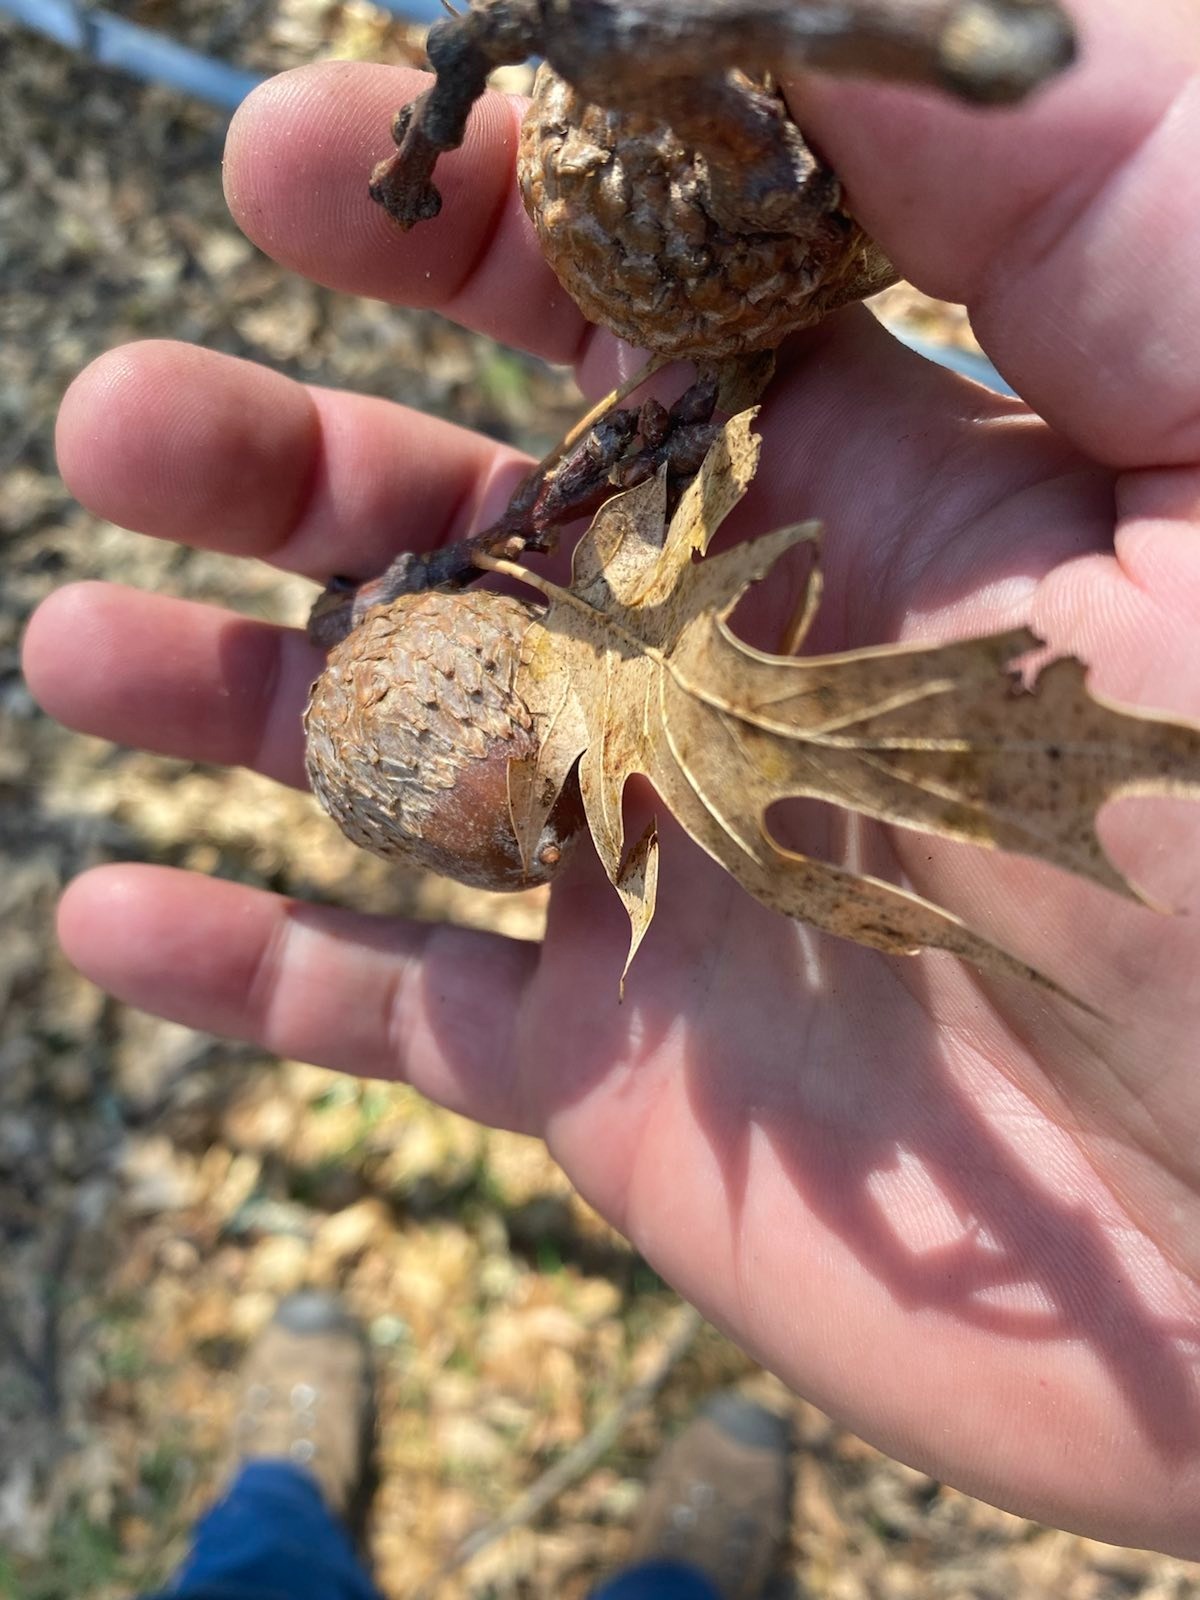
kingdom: Plantae
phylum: Tracheophyta
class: Magnoliopsida
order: Fagales
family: Fagaceae
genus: Quercus
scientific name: Quercus kelloggii
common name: California black oak
